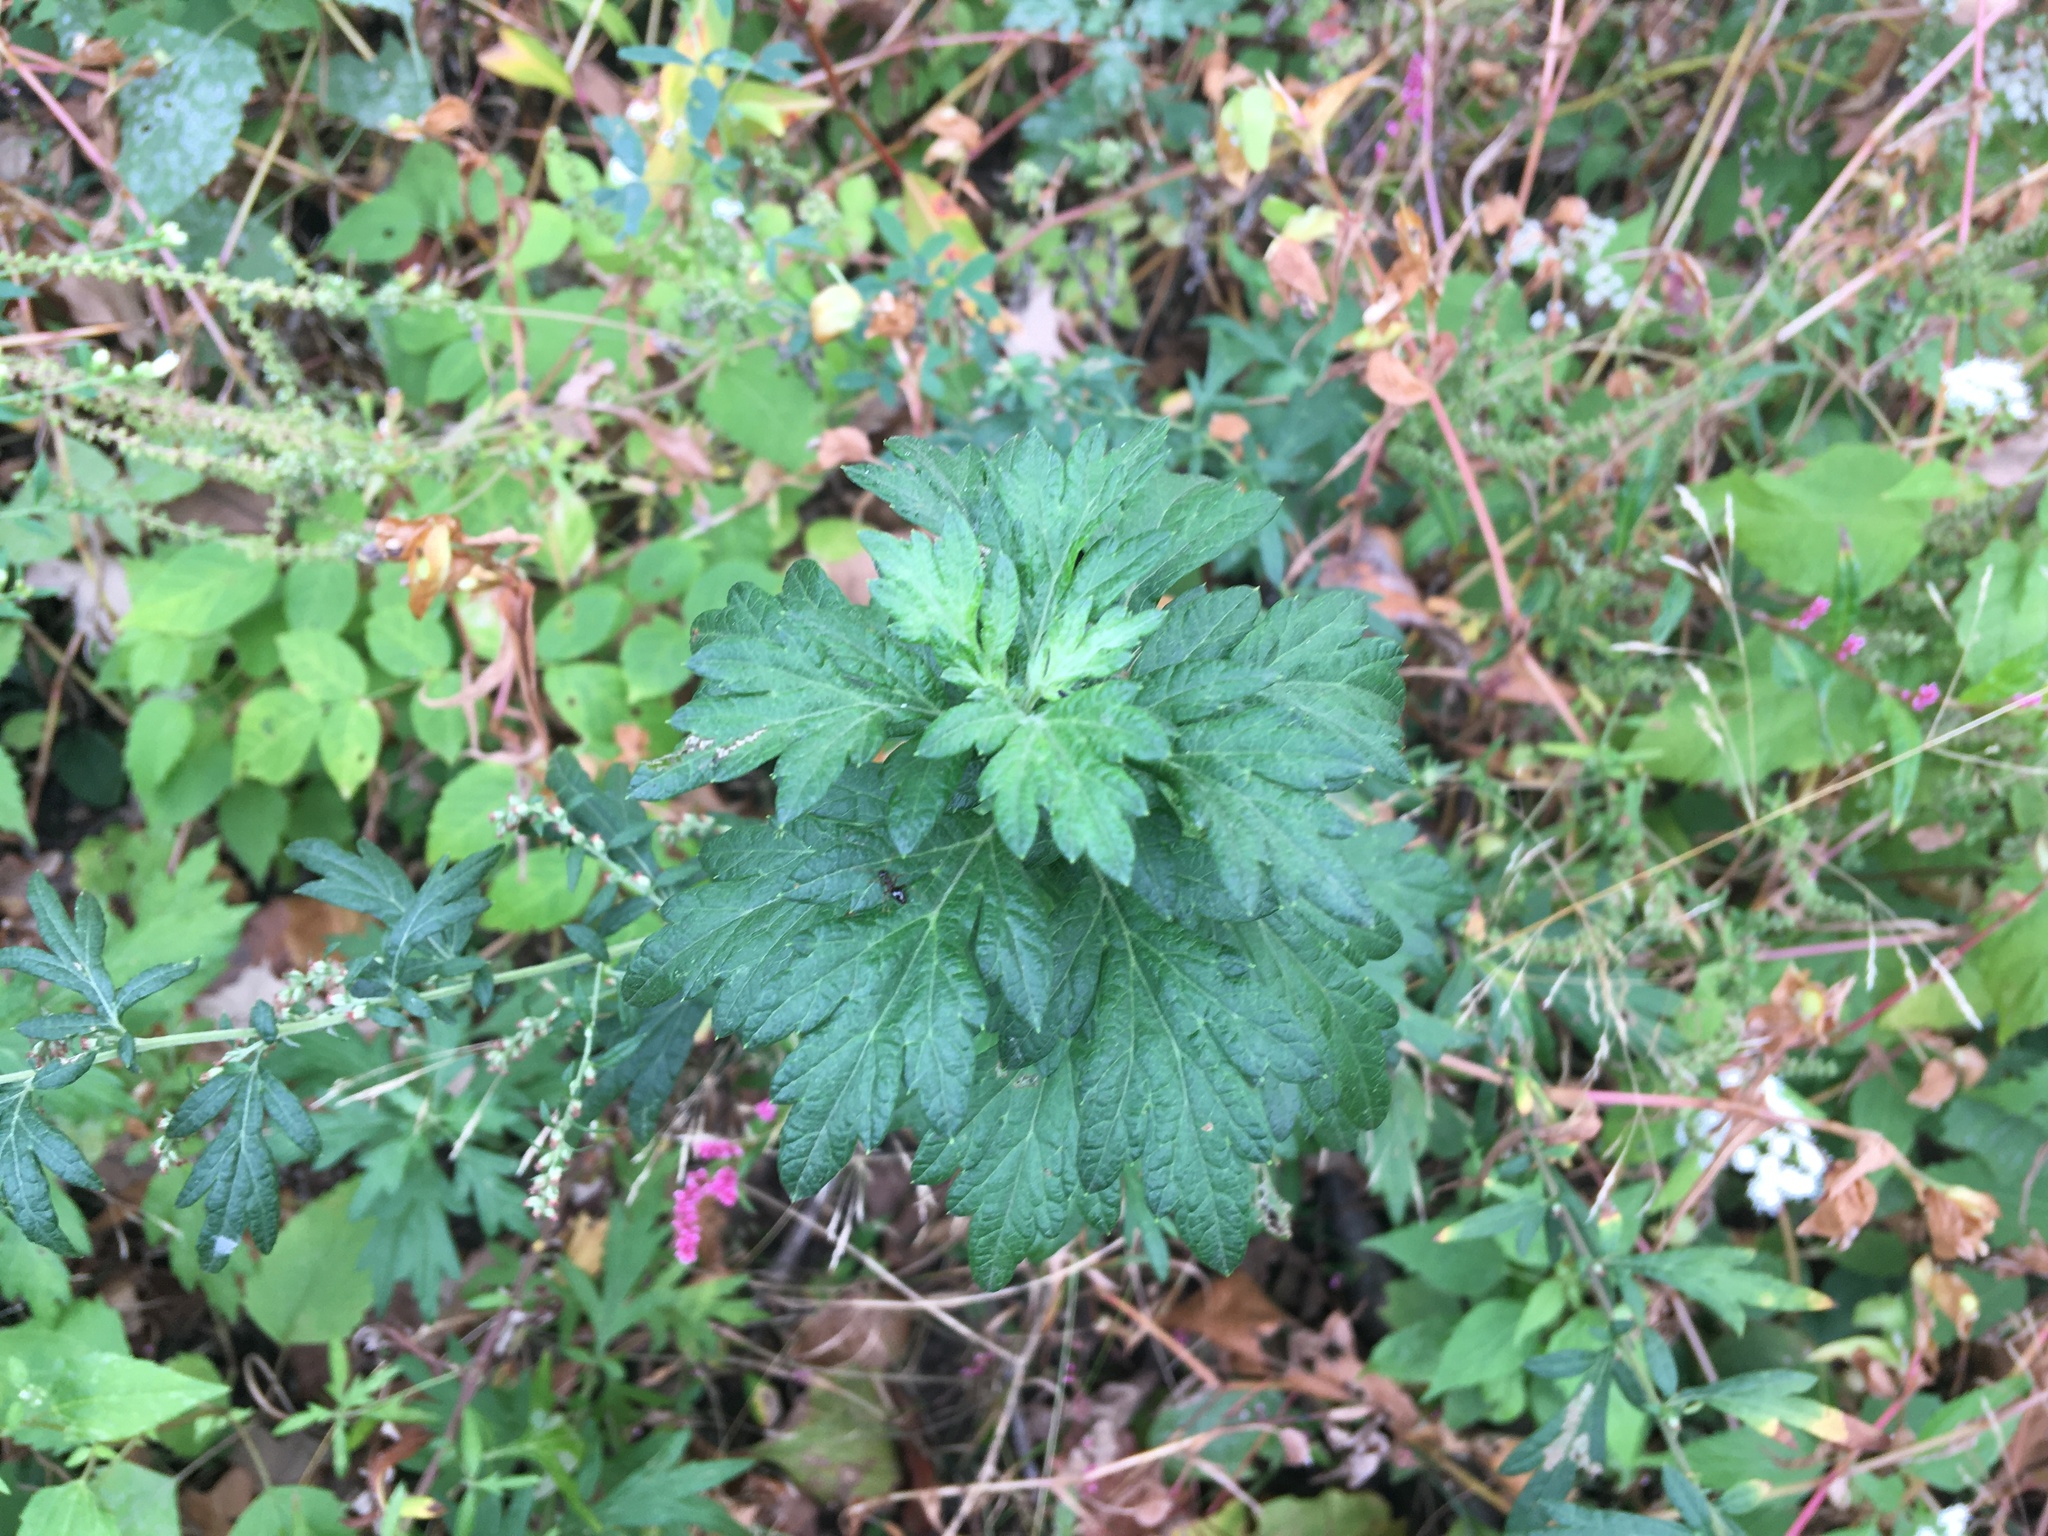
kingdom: Plantae
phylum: Tracheophyta
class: Magnoliopsida
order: Asterales
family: Asteraceae
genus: Artemisia
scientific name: Artemisia vulgaris
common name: Mugwort
